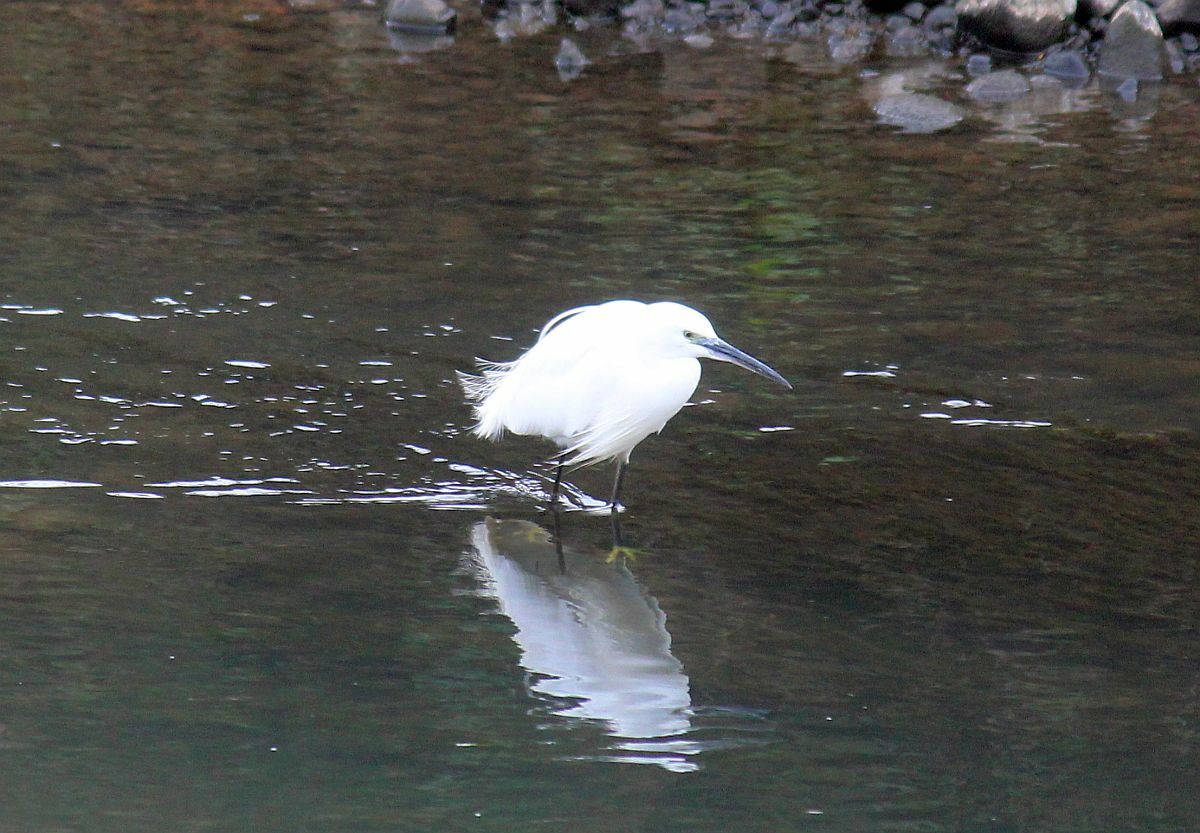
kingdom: Animalia
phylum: Chordata
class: Aves
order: Pelecaniformes
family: Ardeidae
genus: Egretta
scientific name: Egretta garzetta
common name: Little egret
